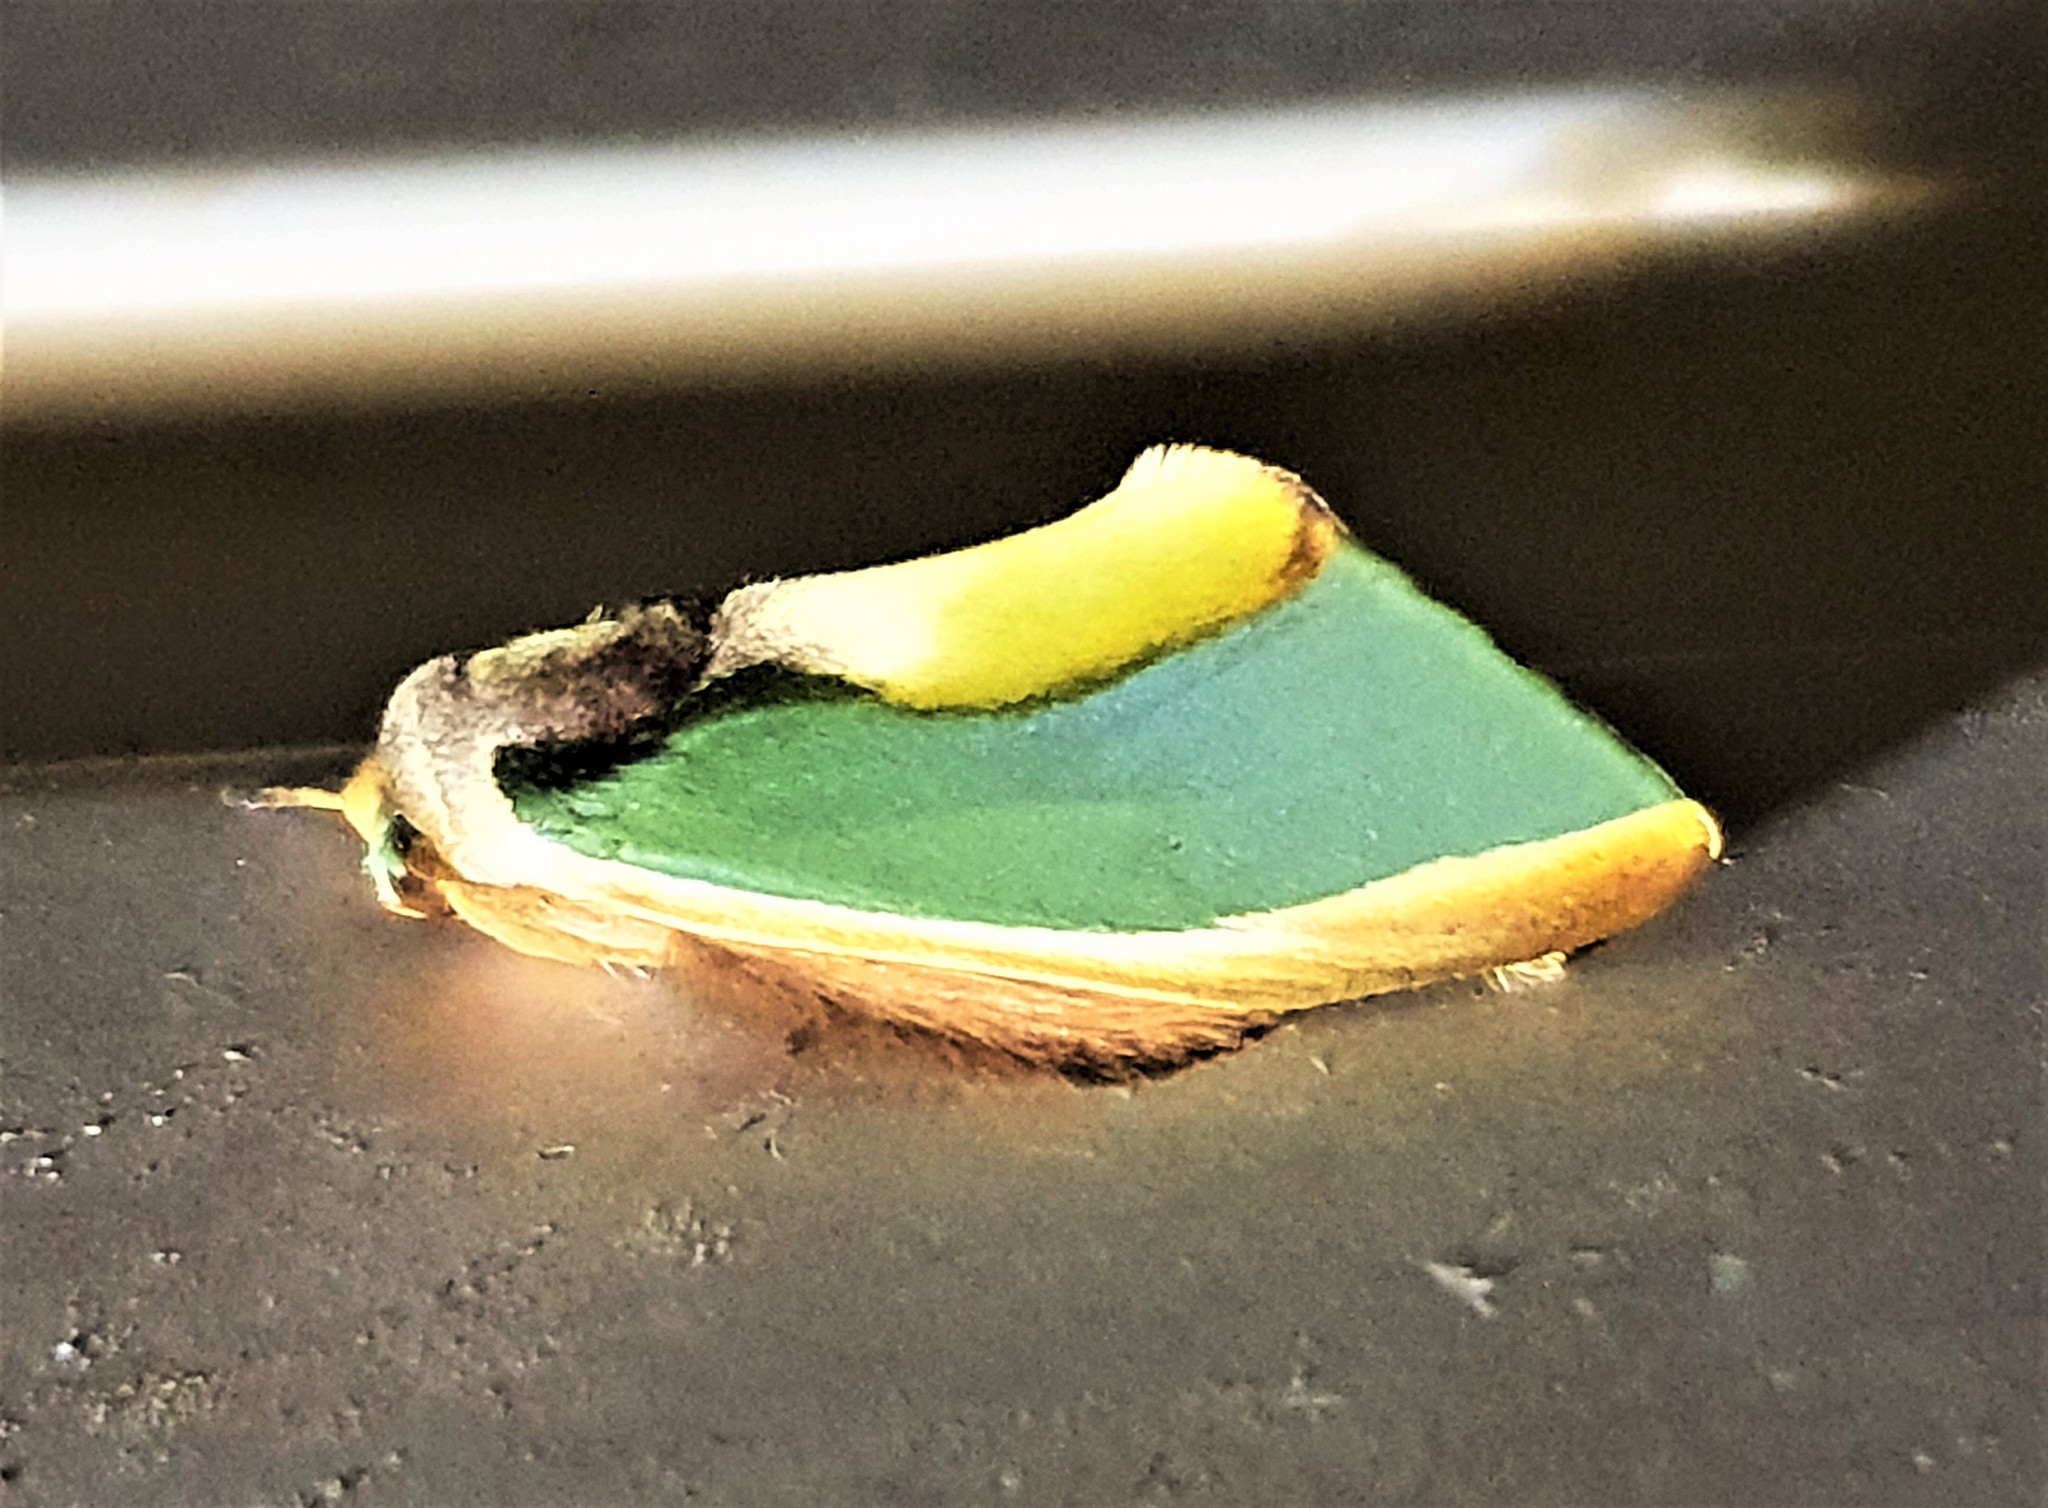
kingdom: Animalia
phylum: Arthropoda
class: Insecta
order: Lepidoptera
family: Notodontidae
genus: Rosema
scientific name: Rosema apollinairei
